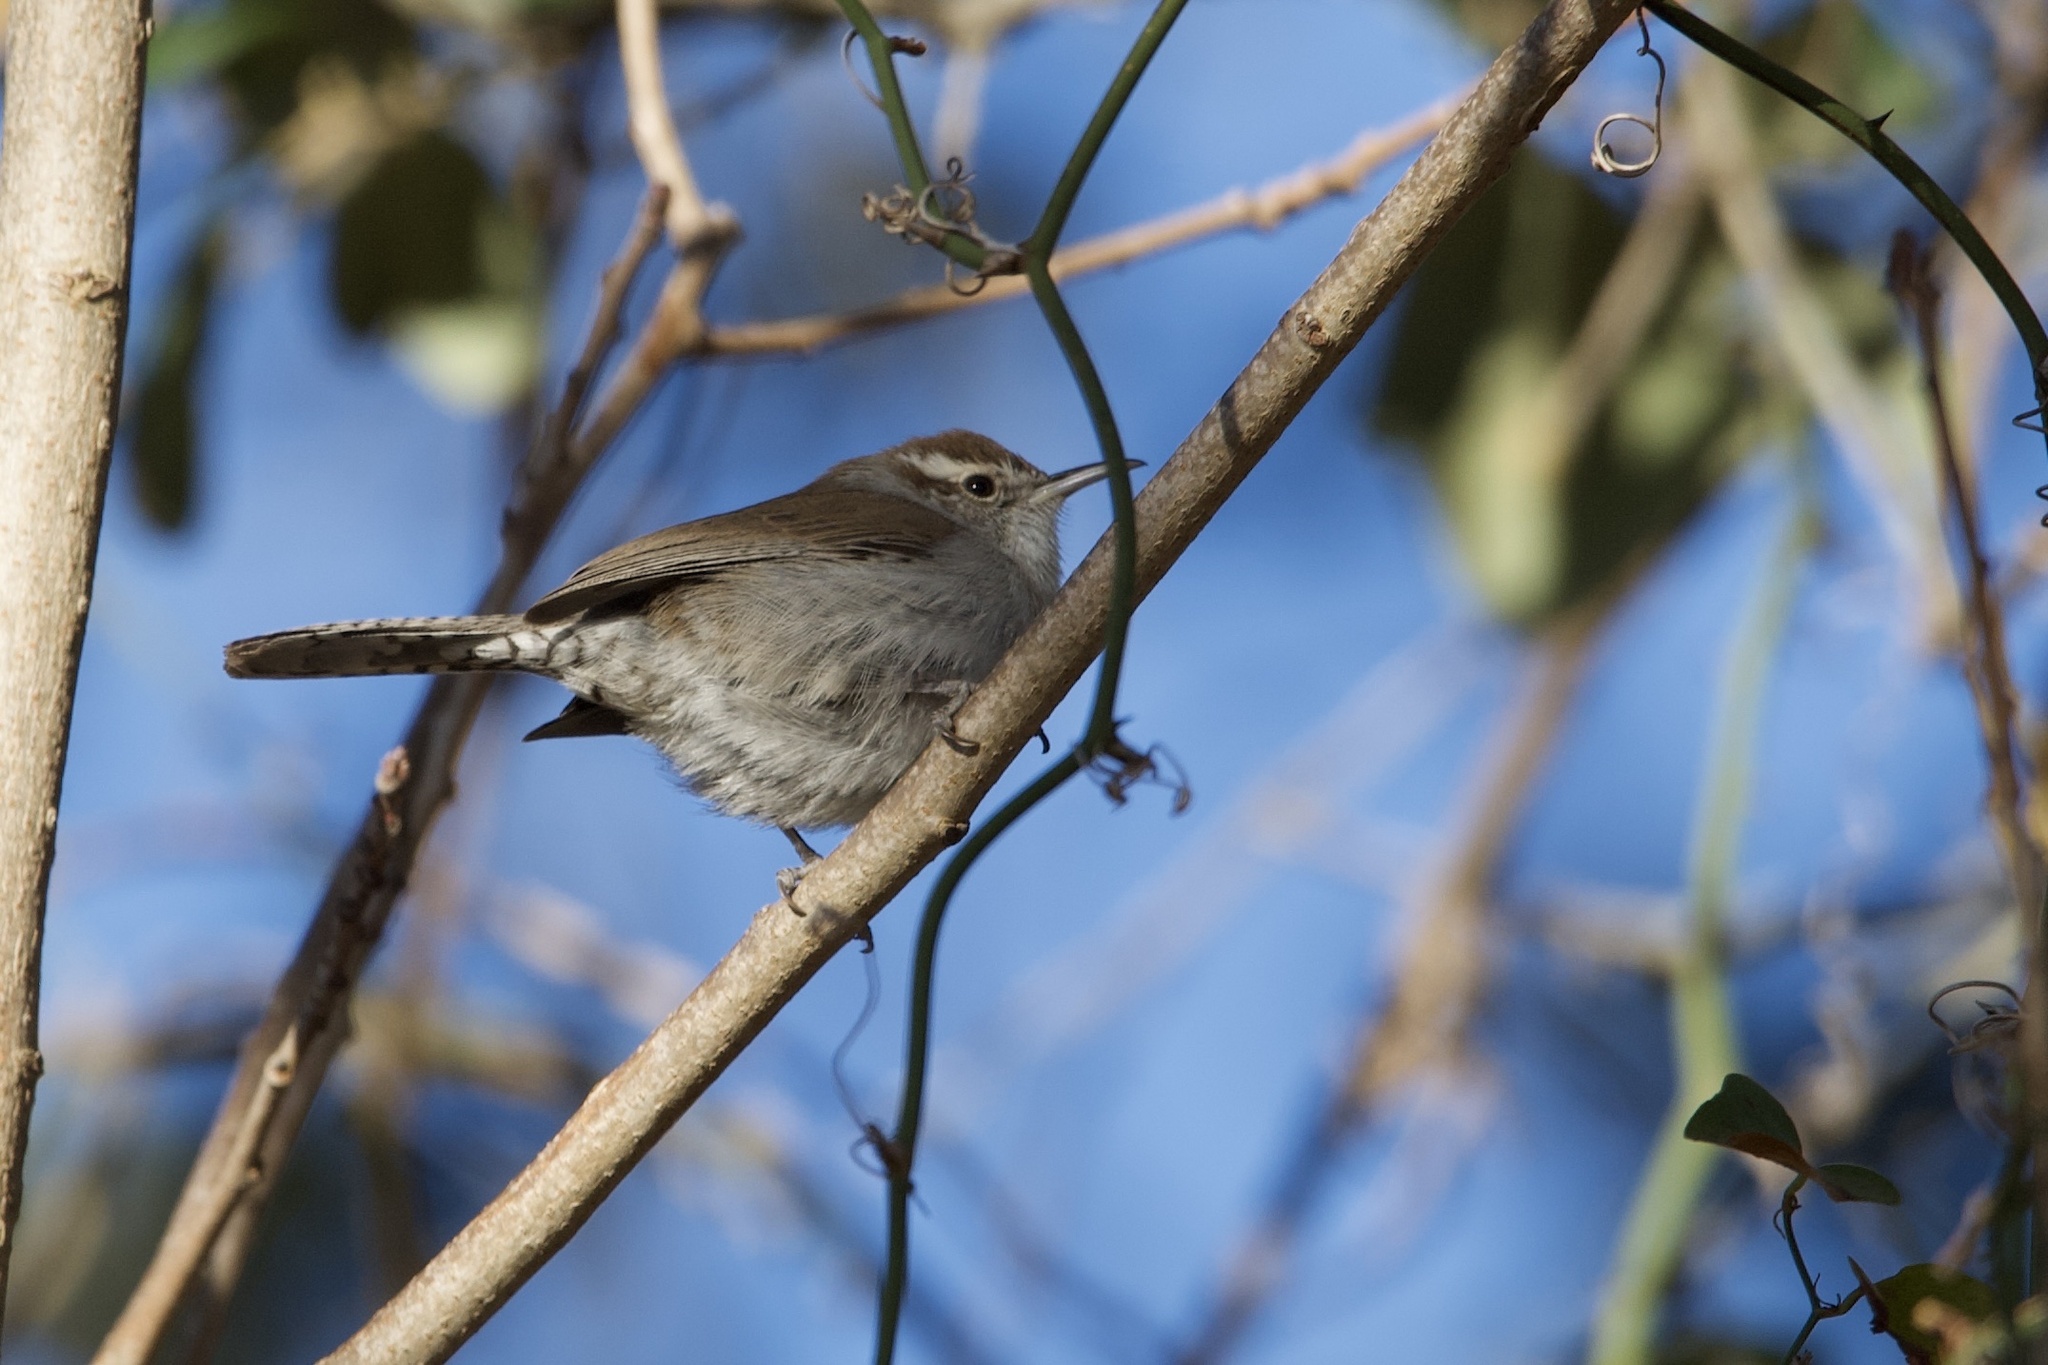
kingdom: Animalia
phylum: Chordata
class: Aves
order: Passeriformes
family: Troglodytidae
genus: Thryomanes
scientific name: Thryomanes bewickii
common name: Bewick's wren
